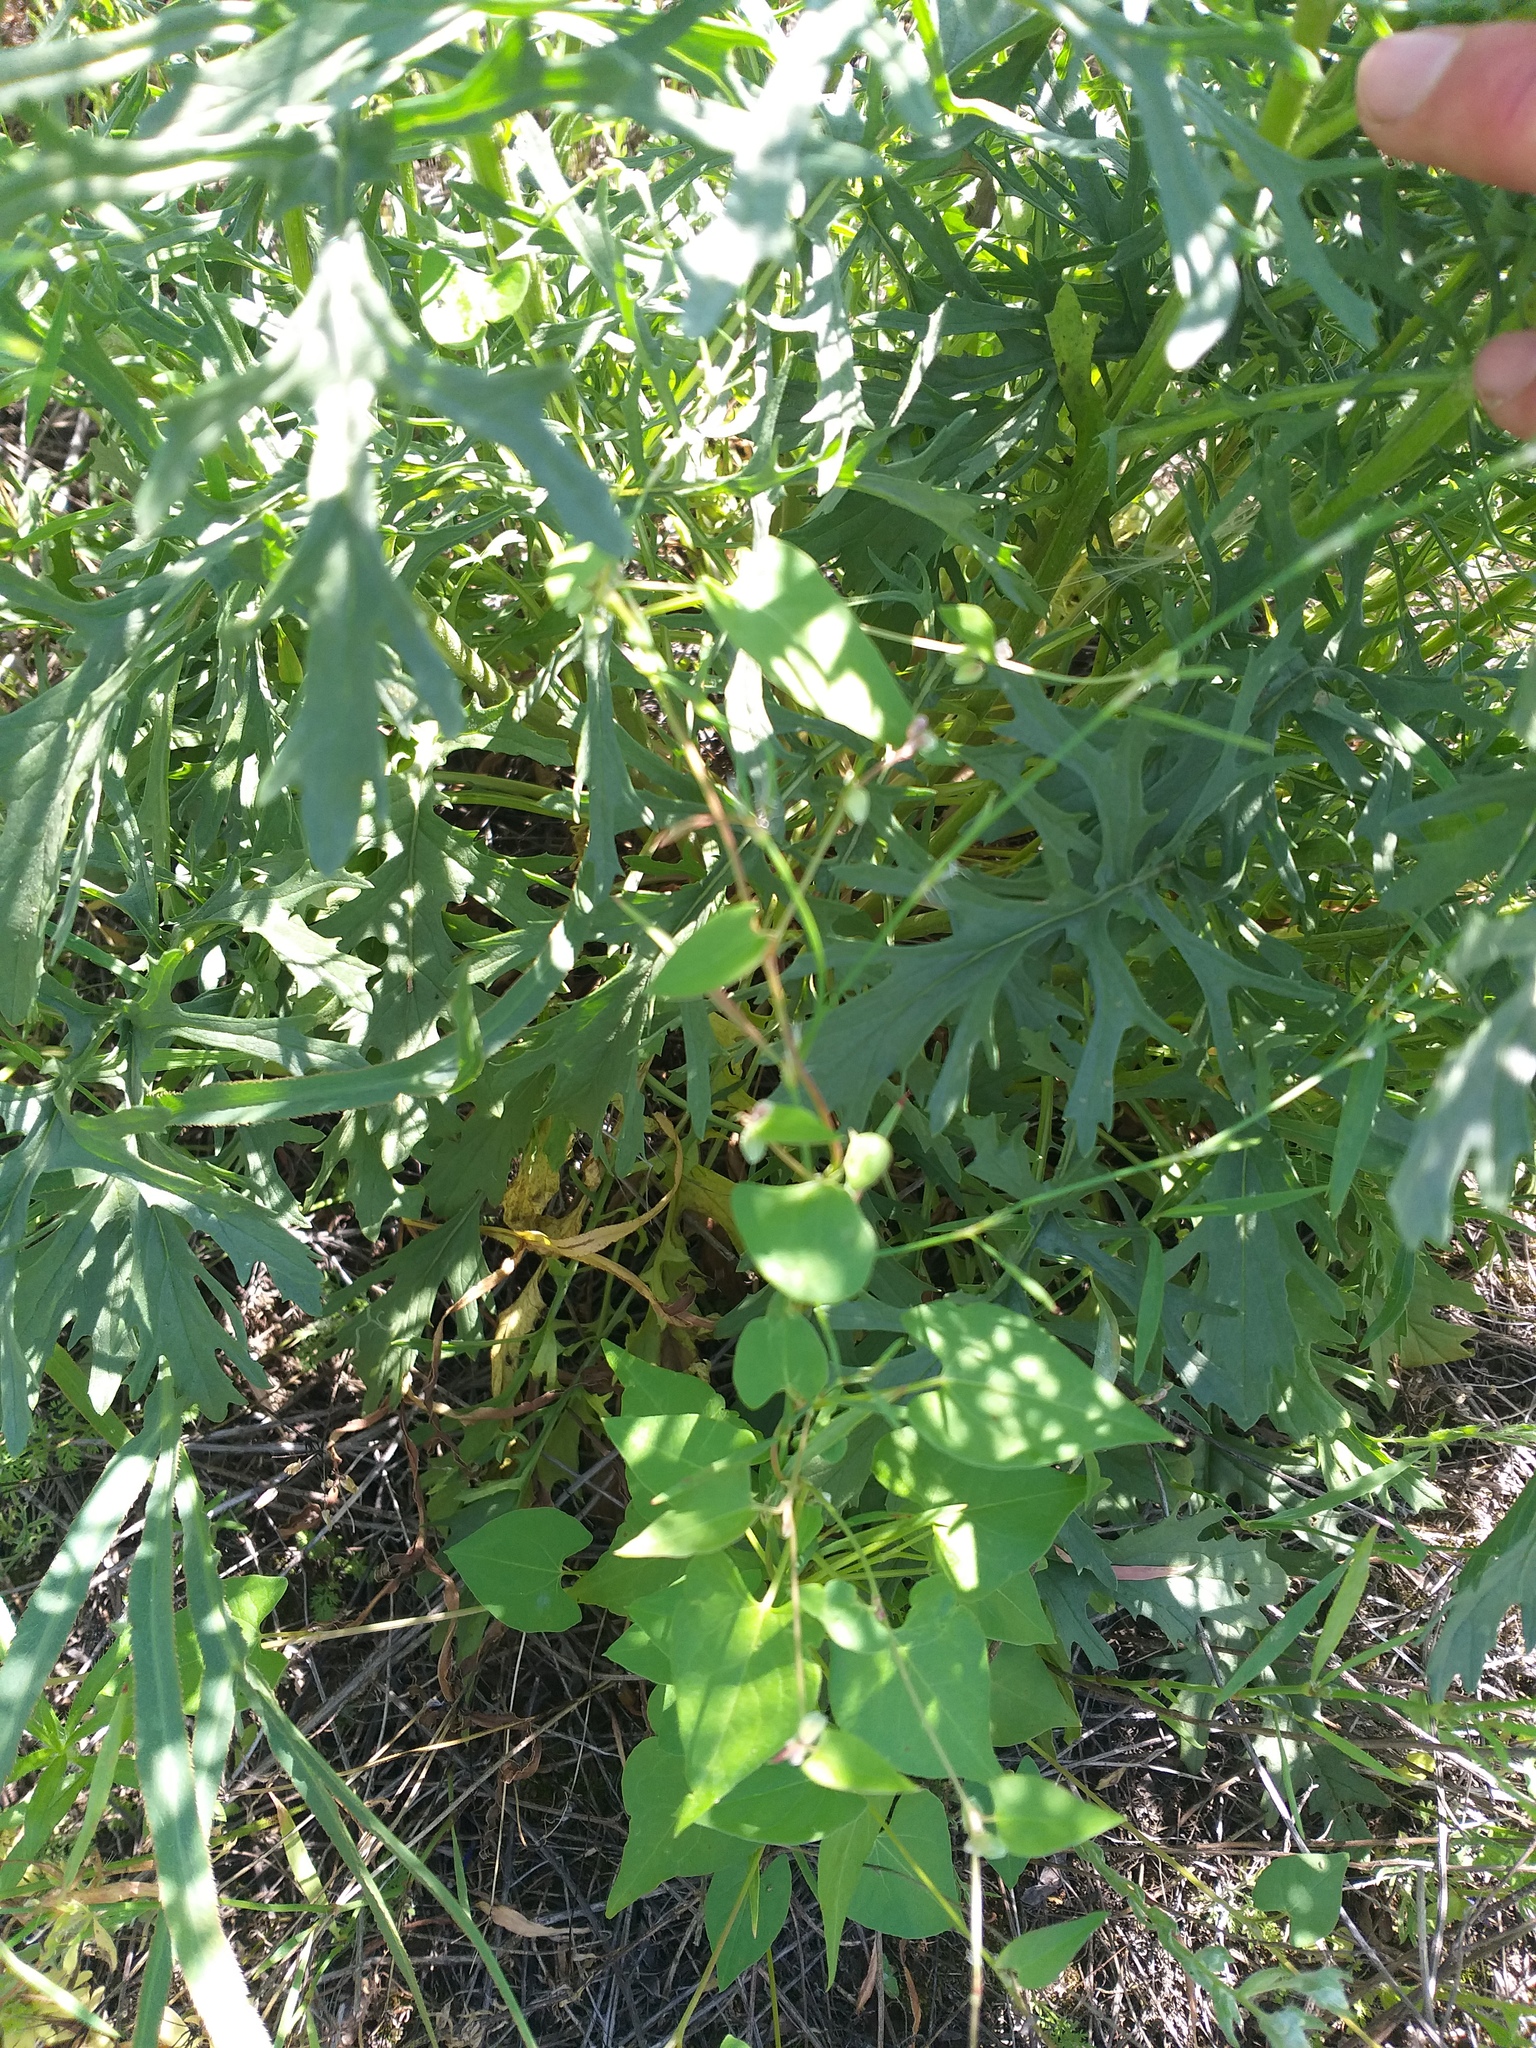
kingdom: Plantae
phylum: Tracheophyta
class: Magnoliopsida
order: Asterales
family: Asteraceae
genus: Jacobaea
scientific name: Jacobaea andrzejowskyi
